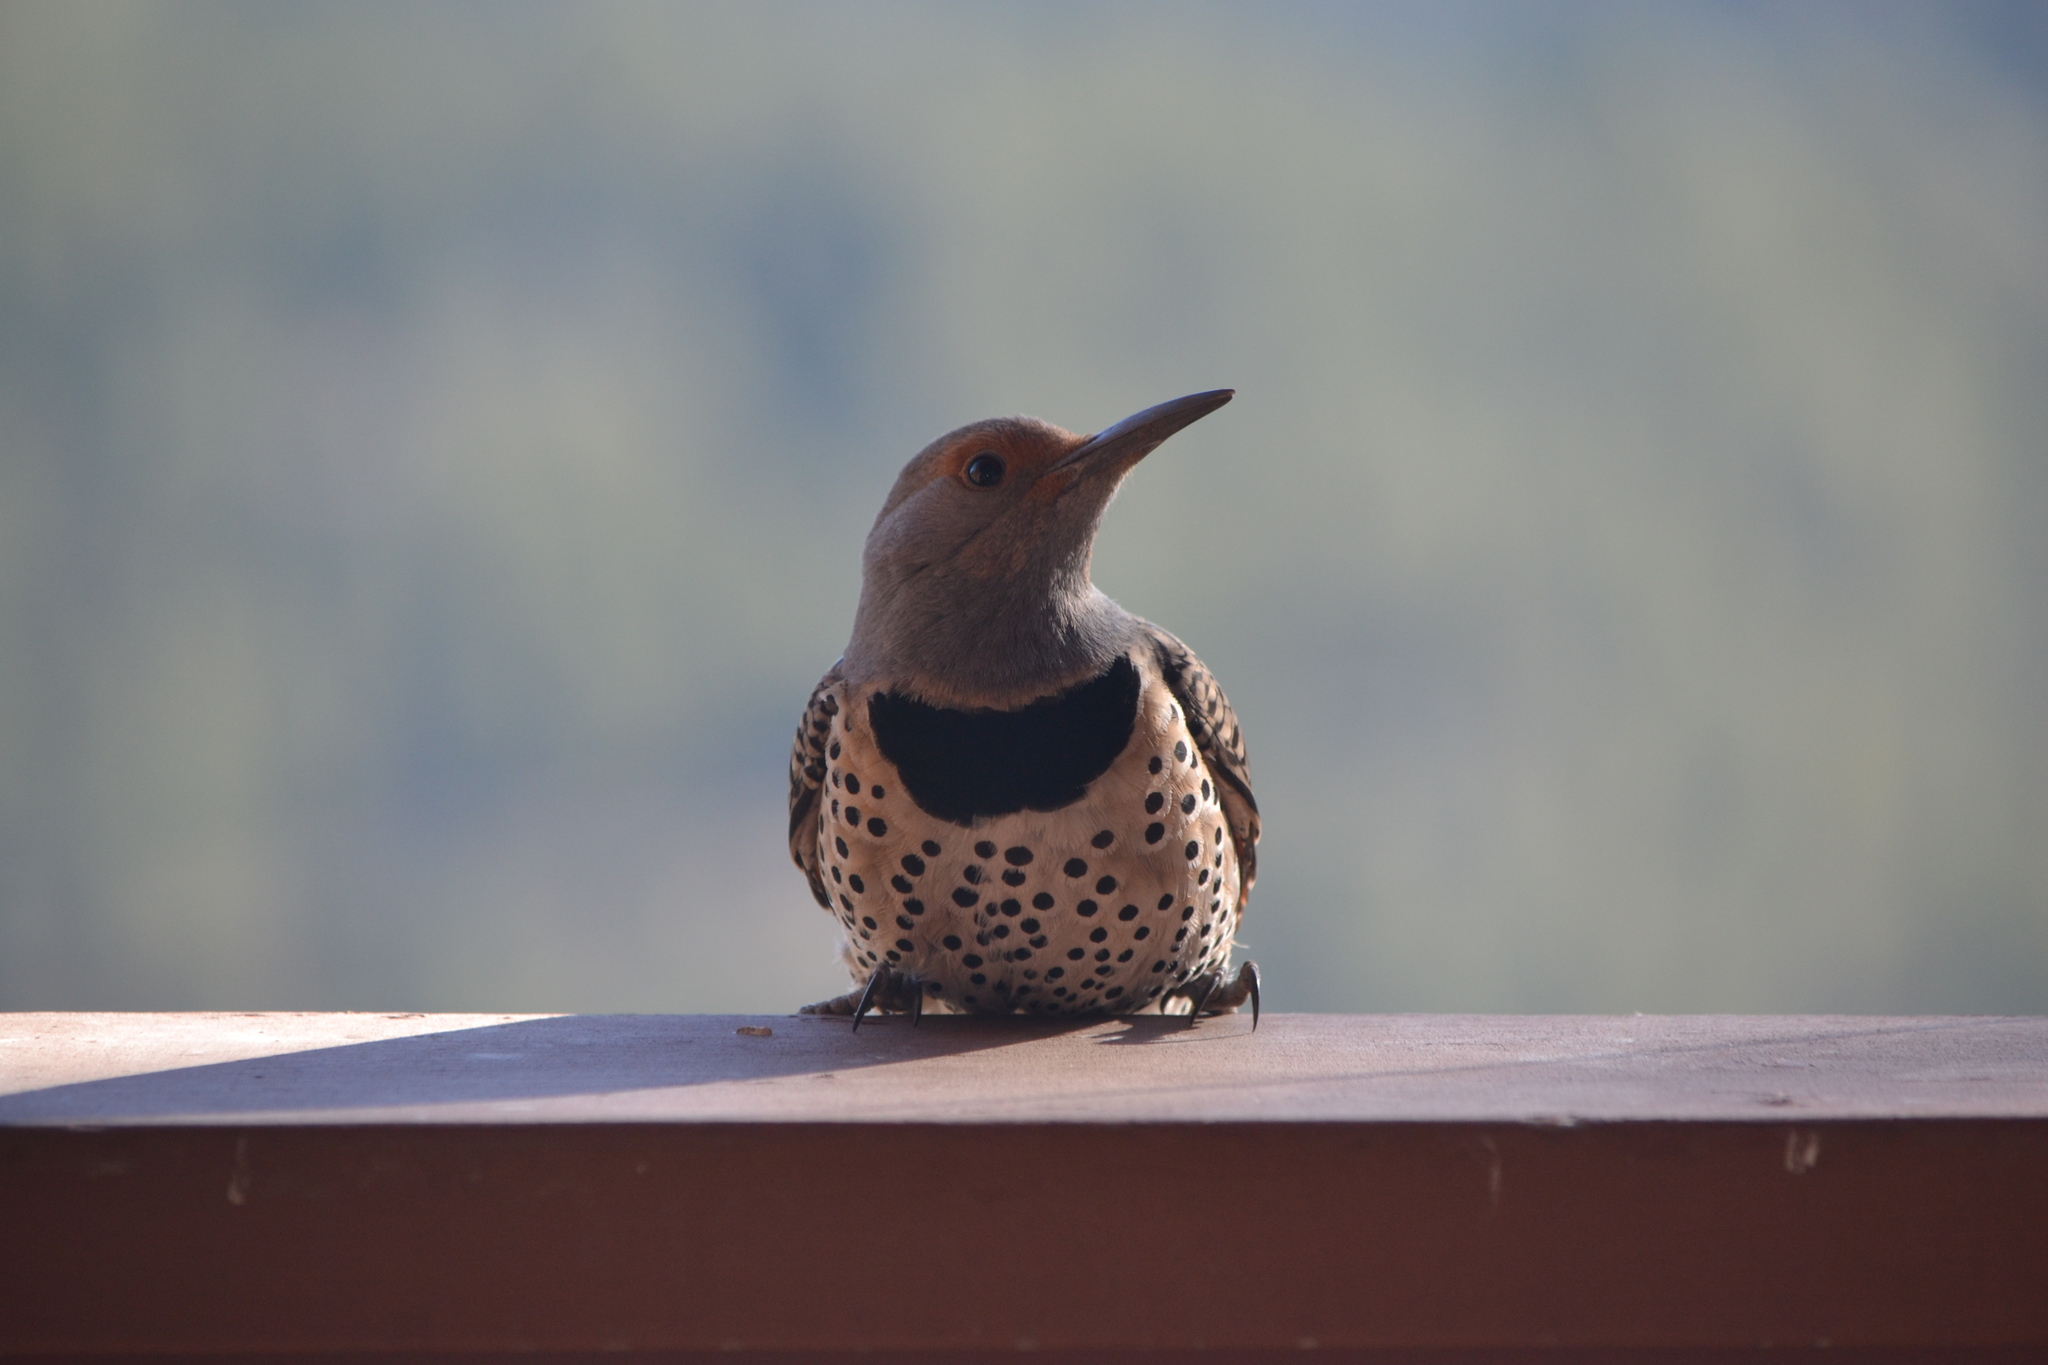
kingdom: Animalia
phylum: Chordata
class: Aves
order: Piciformes
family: Picidae
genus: Colaptes
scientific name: Colaptes auratus
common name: Northern flicker
